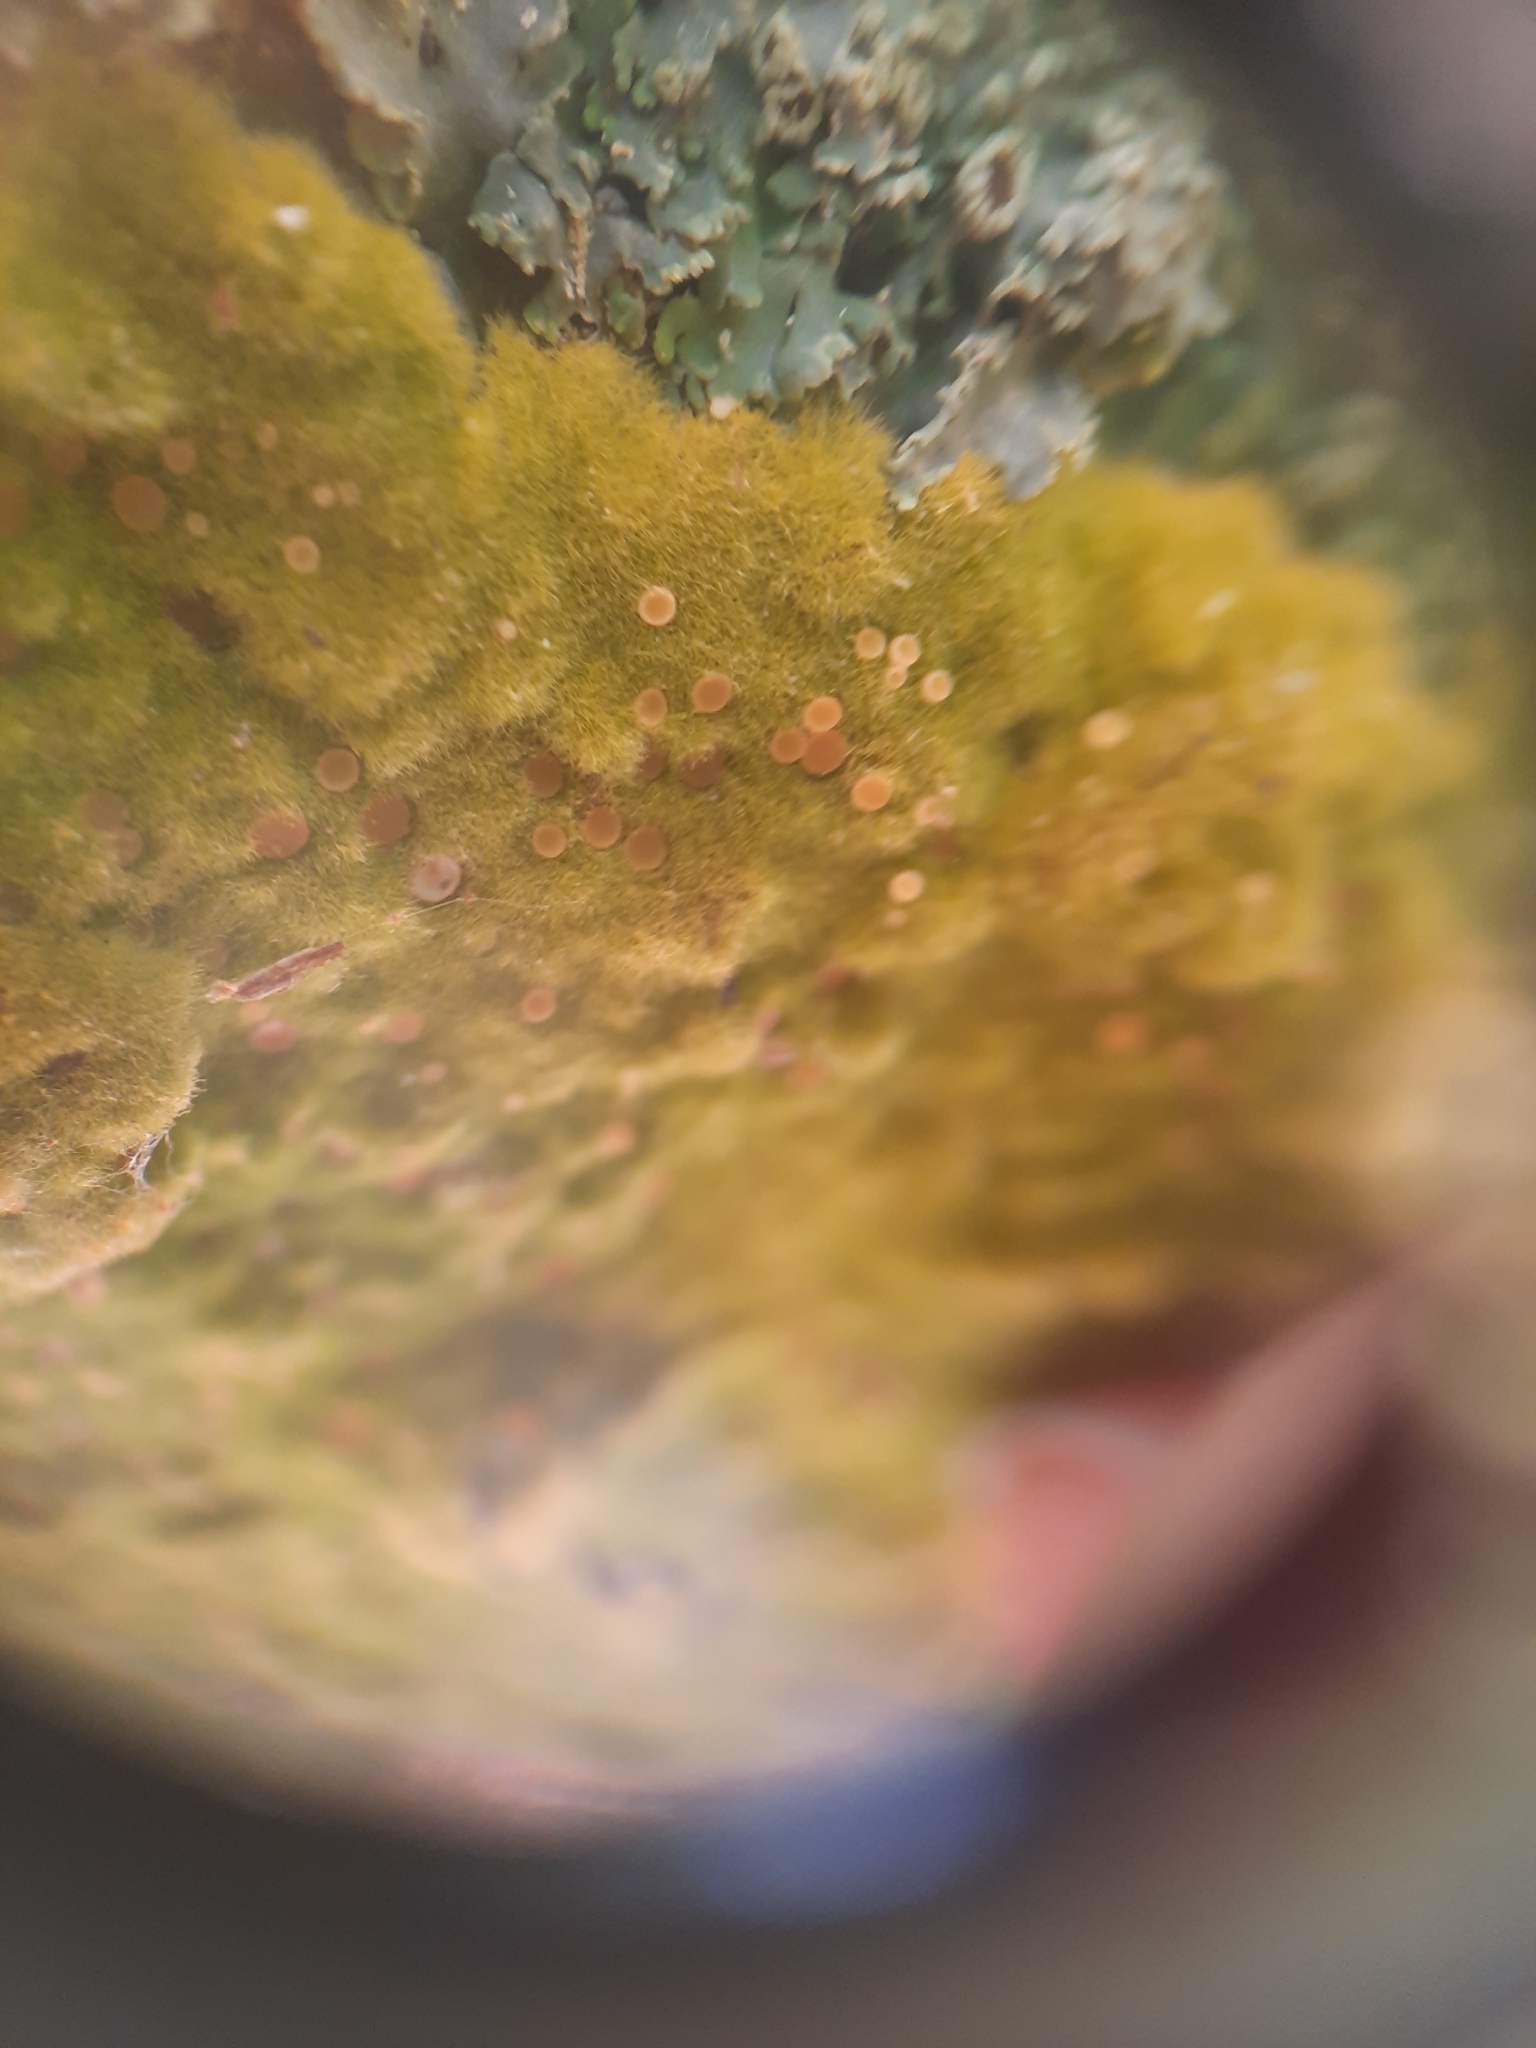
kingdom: Fungi
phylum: Ascomycota
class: Lecanoromycetes
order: Ostropales
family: Coenogoniaceae
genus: Coenogonium
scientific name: Coenogonium implexum
